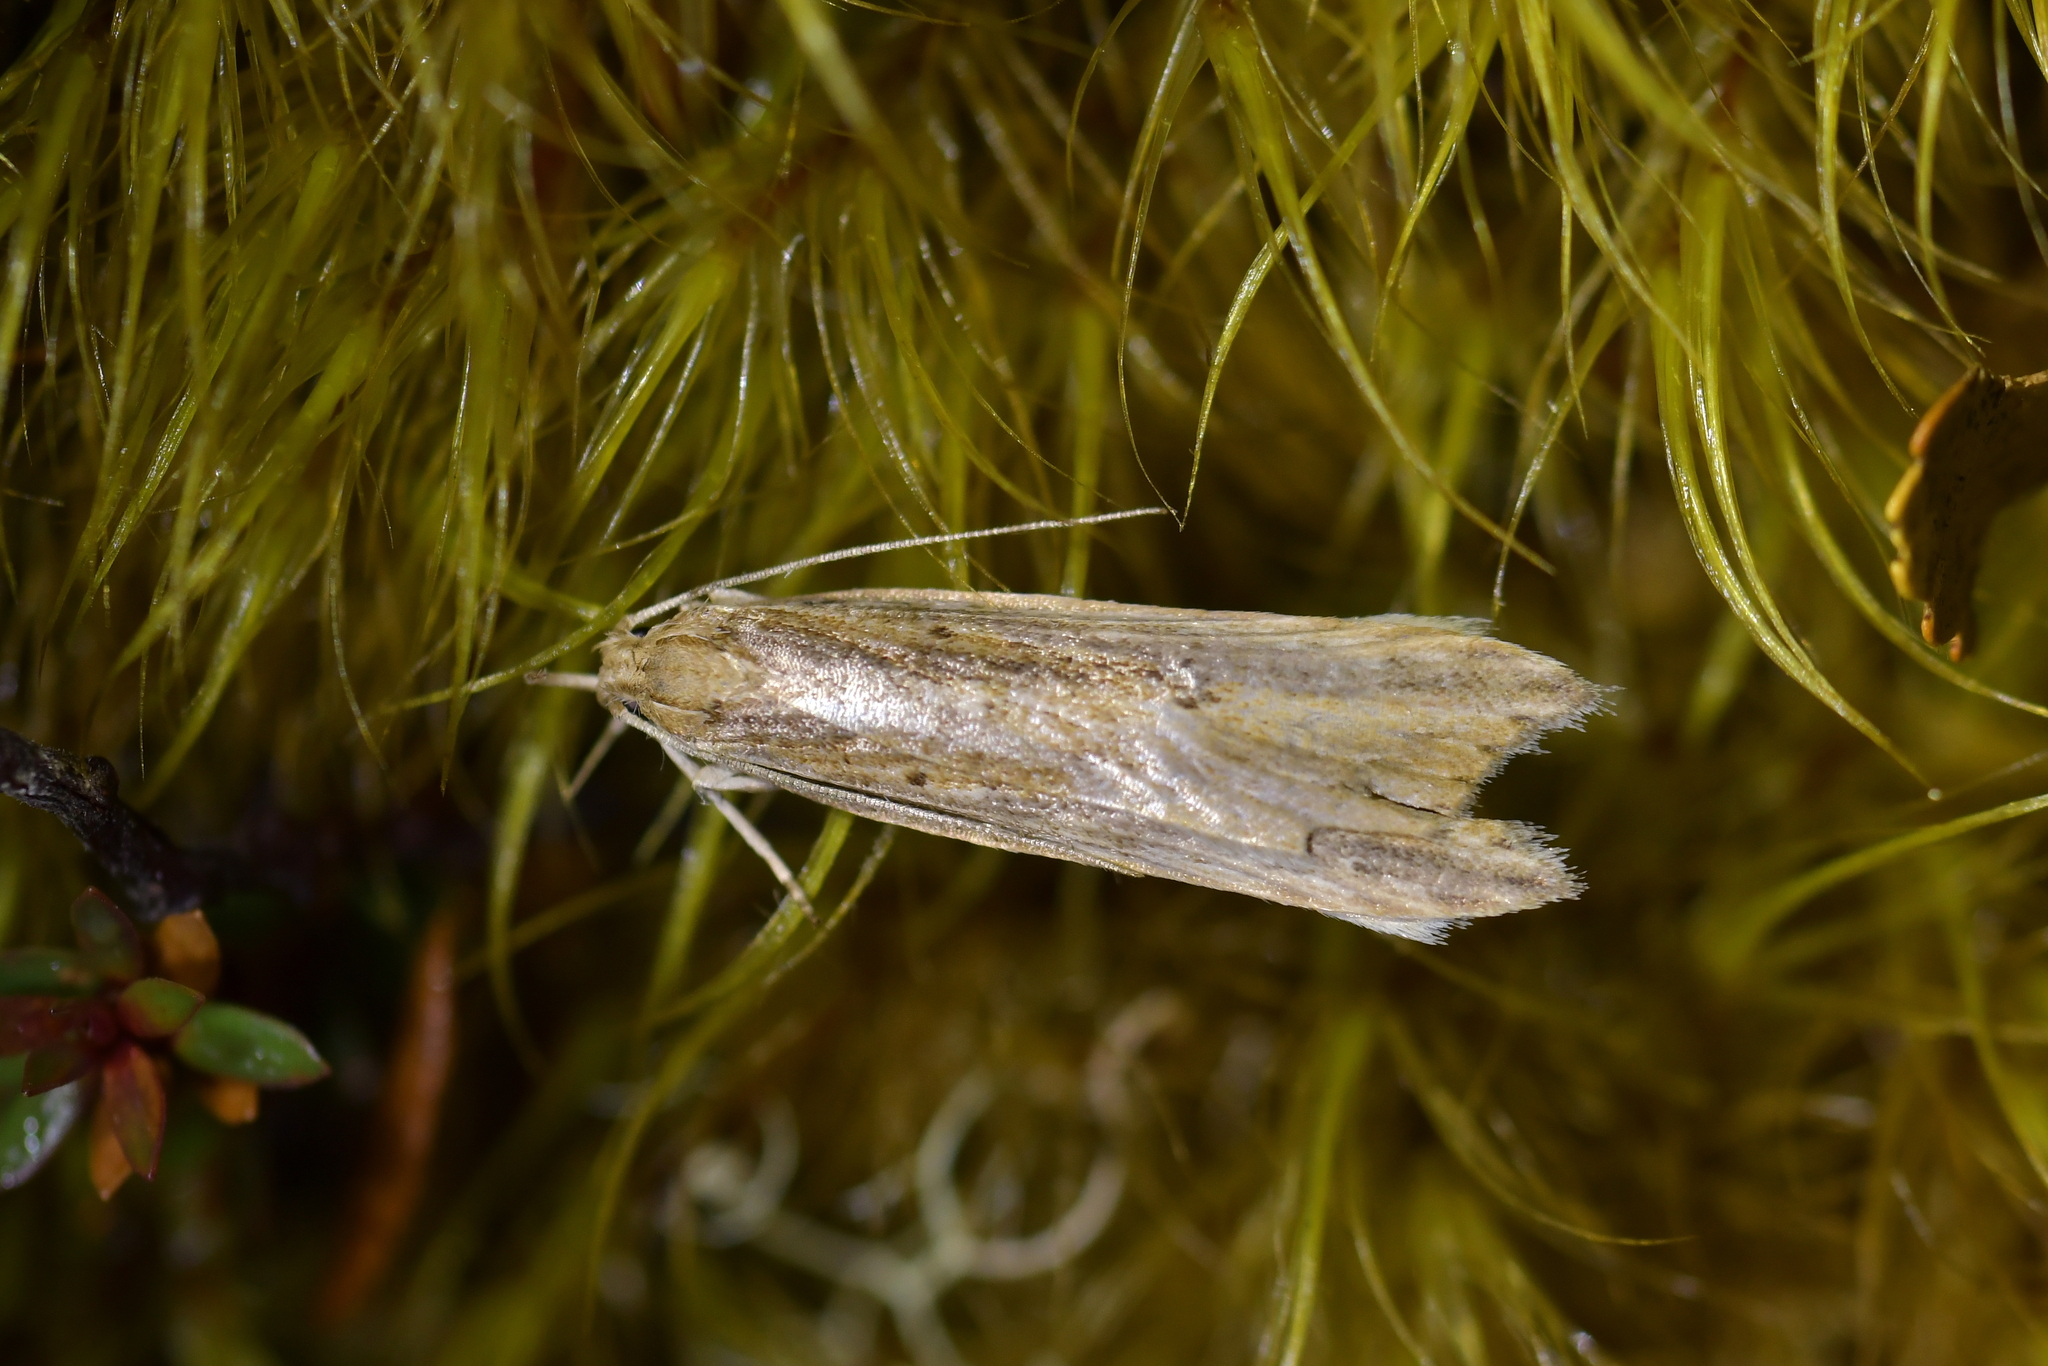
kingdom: Animalia
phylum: Arthropoda
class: Insecta
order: Lepidoptera
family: Xyloryctidae
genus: Donacostola
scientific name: Donacostola notabilis
